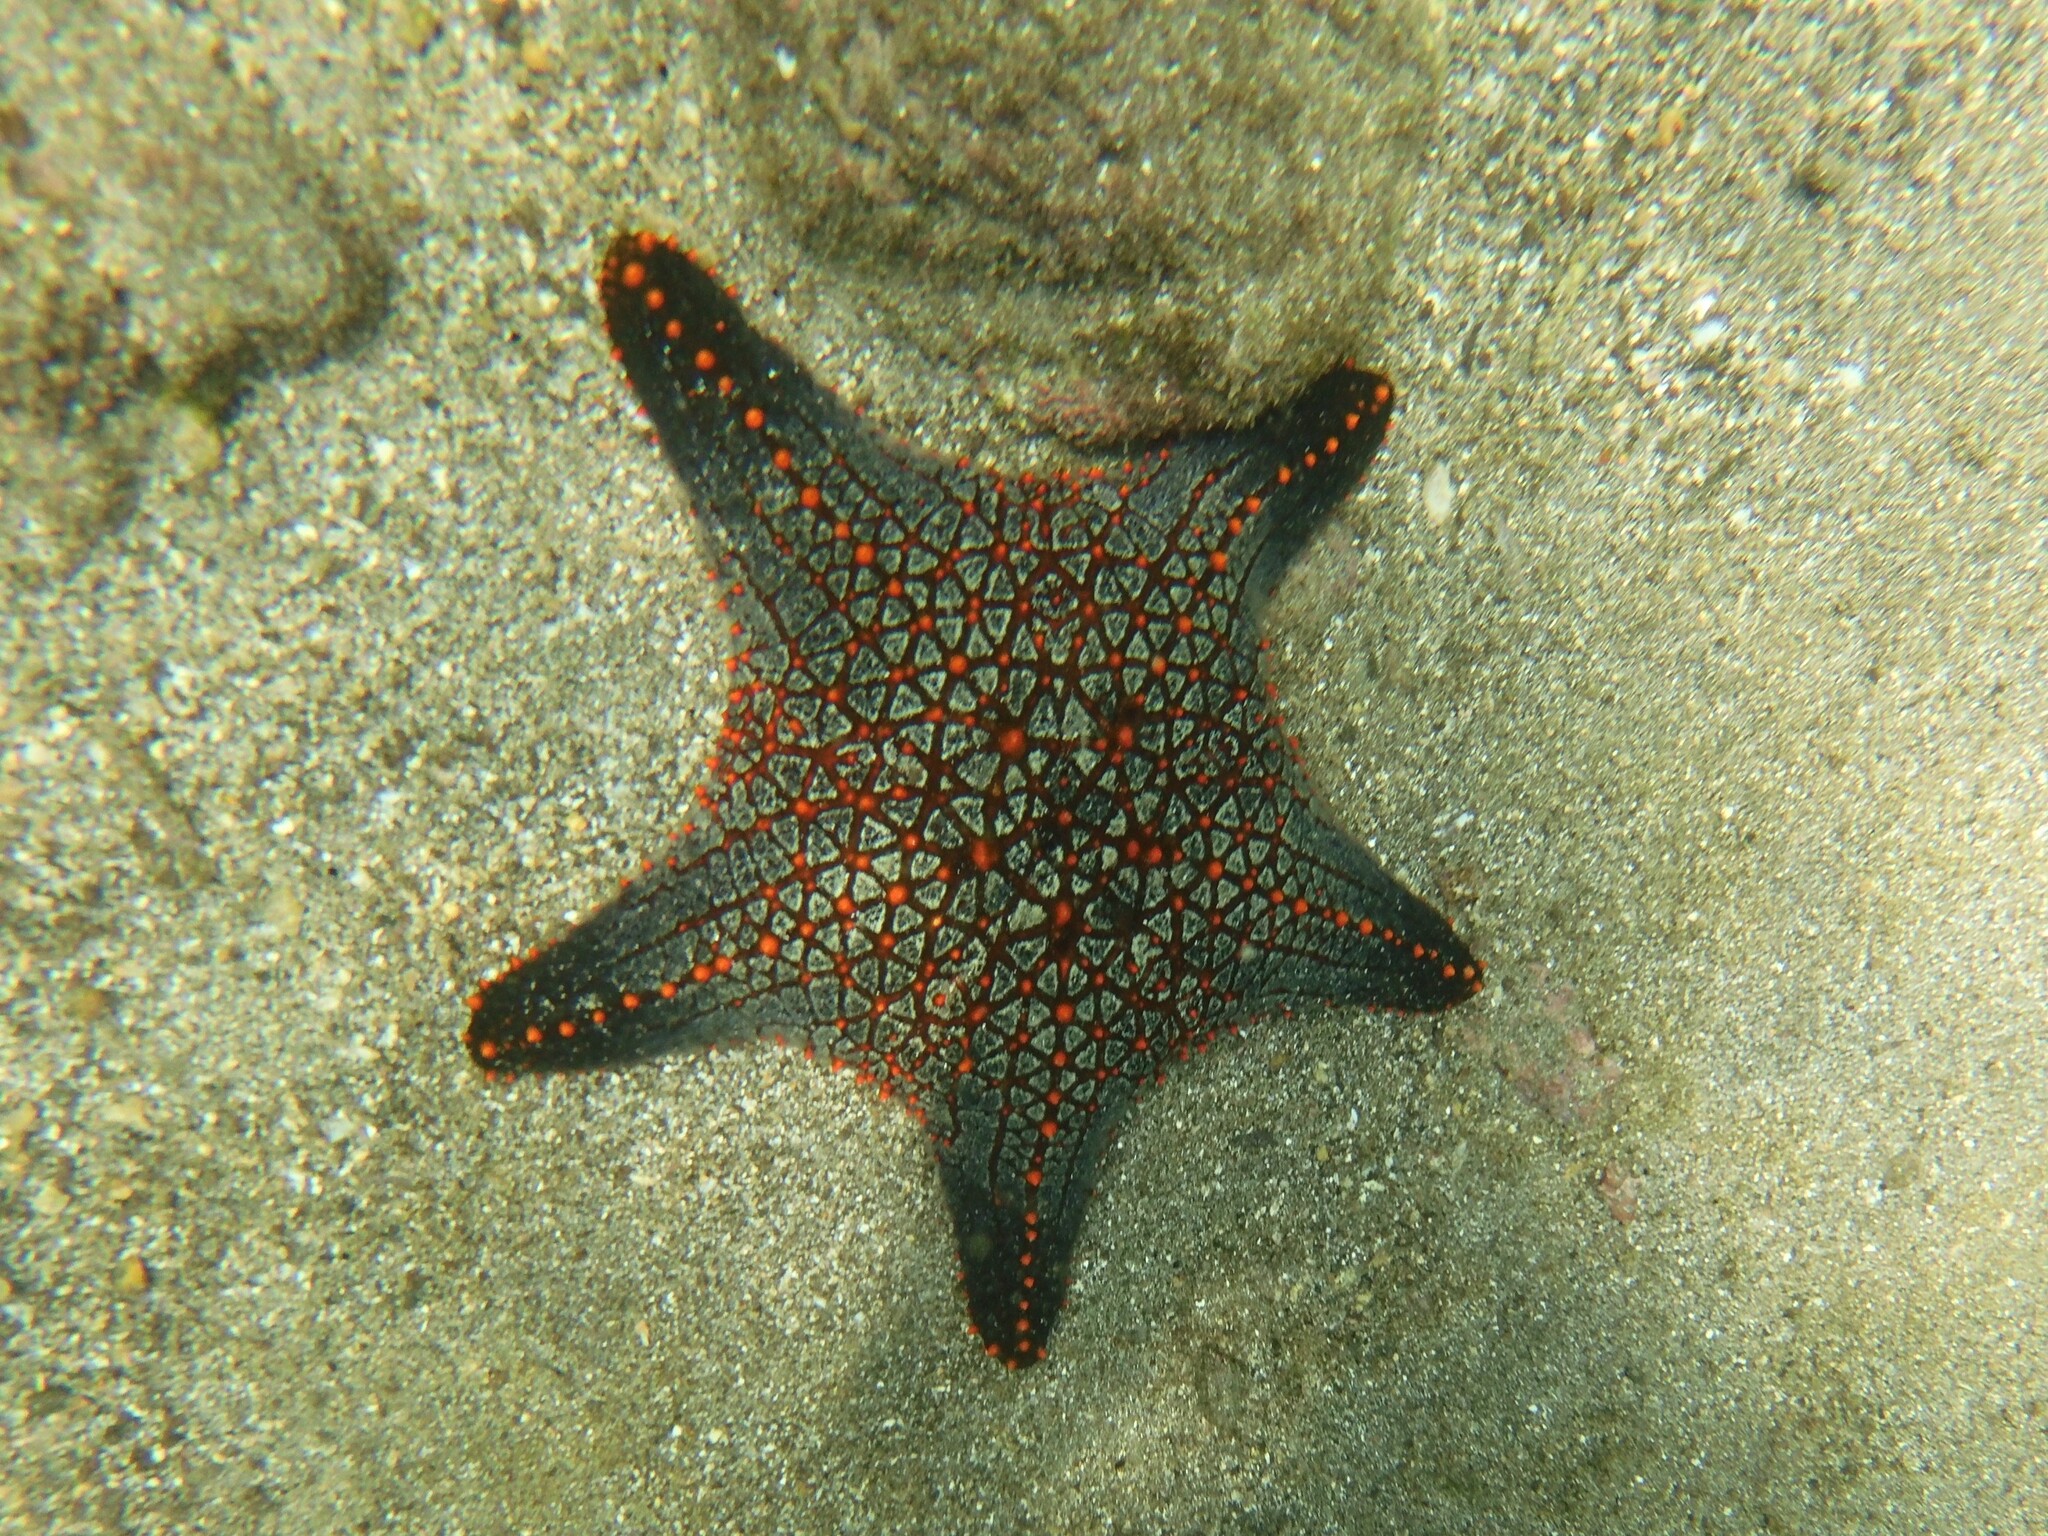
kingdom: Animalia
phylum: Echinodermata
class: Asteroidea
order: Valvatida
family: Oreasteridae
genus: Pentaceraster
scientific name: Pentaceraster cumingi
